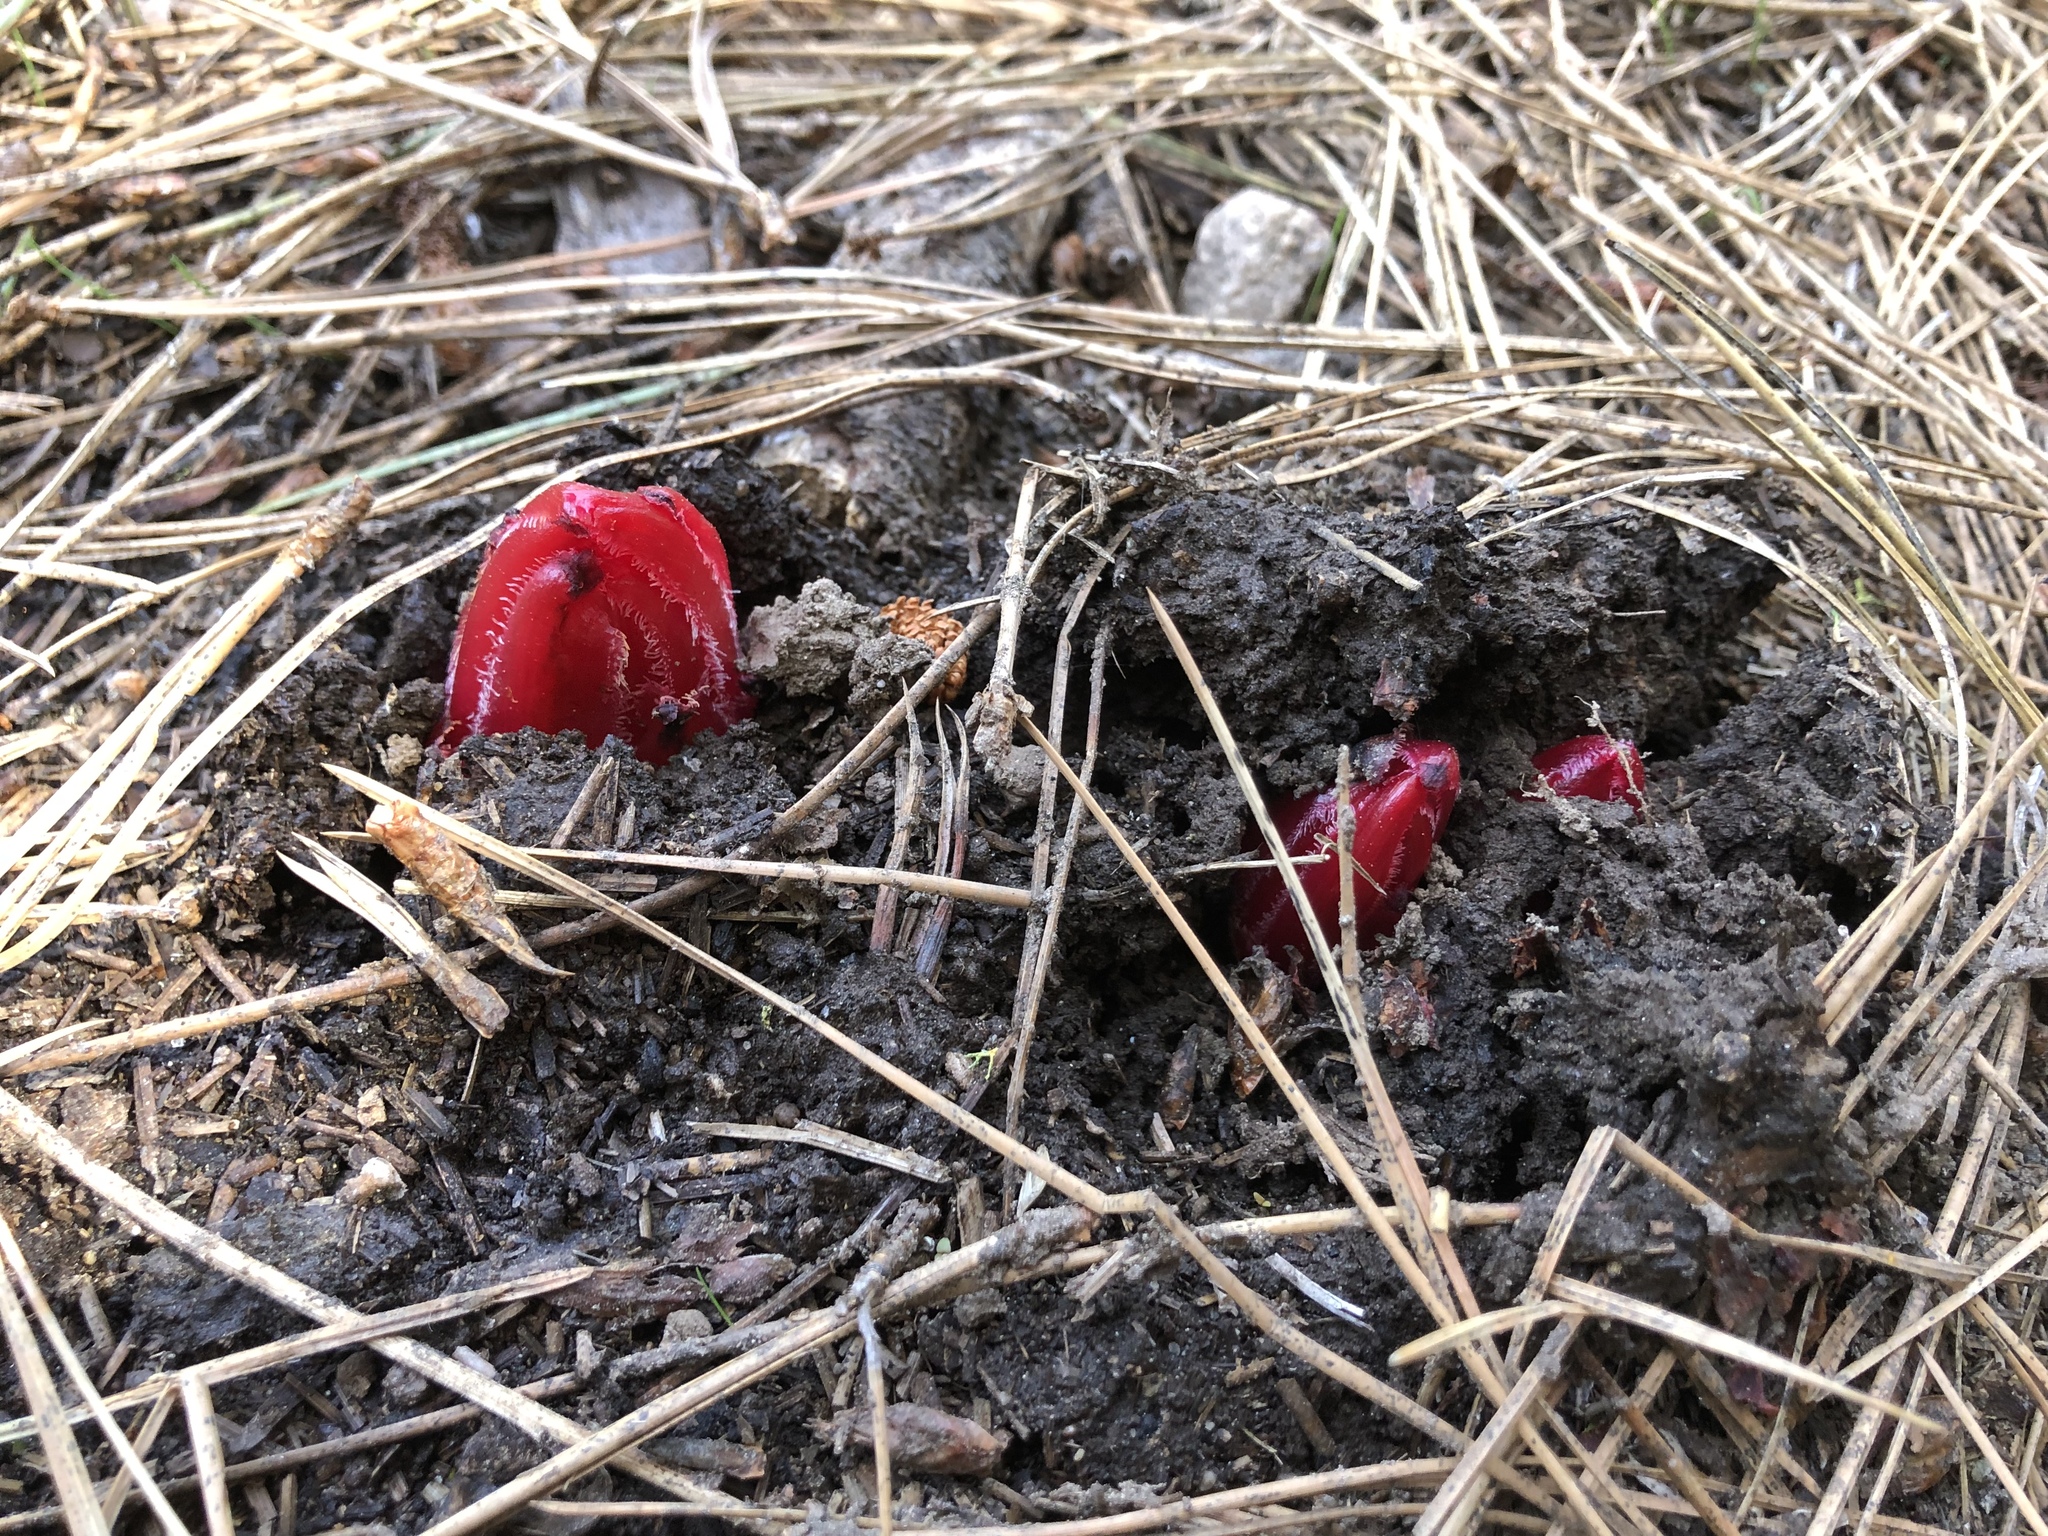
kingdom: Plantae
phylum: Tracheophyta
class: Magnoliopsida
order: Ericales
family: Ericaceae
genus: Sarcodes
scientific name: Sarcodes sanguinea
